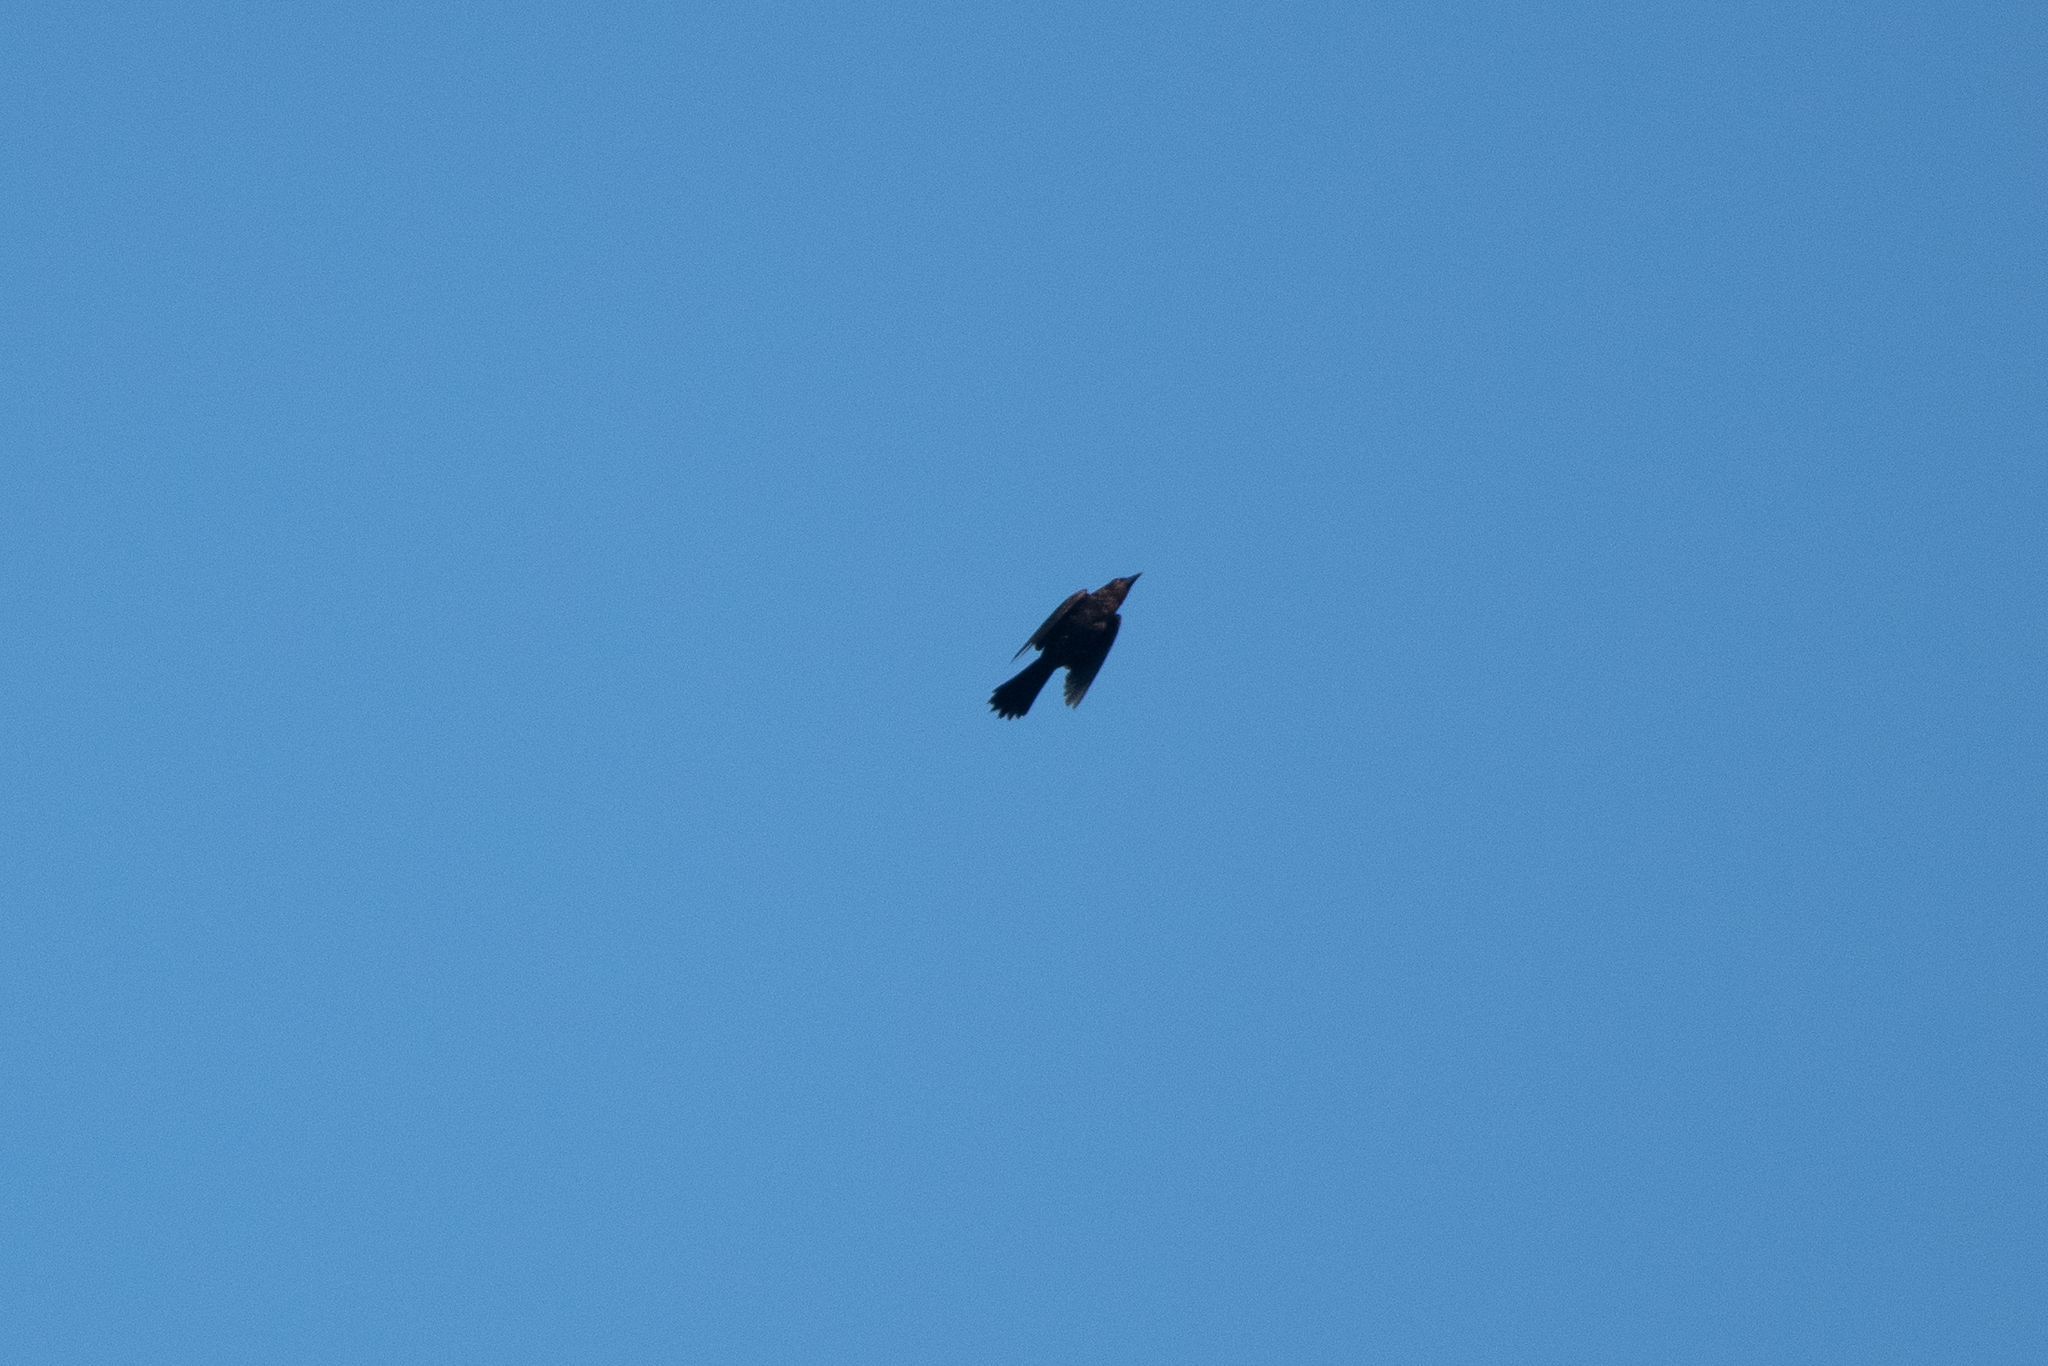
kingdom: Animalia
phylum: Chordata
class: Aves
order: Passeriformes
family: Icteridae
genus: Quiscalus
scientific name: Quiscalus quiscula
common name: Common grackle
